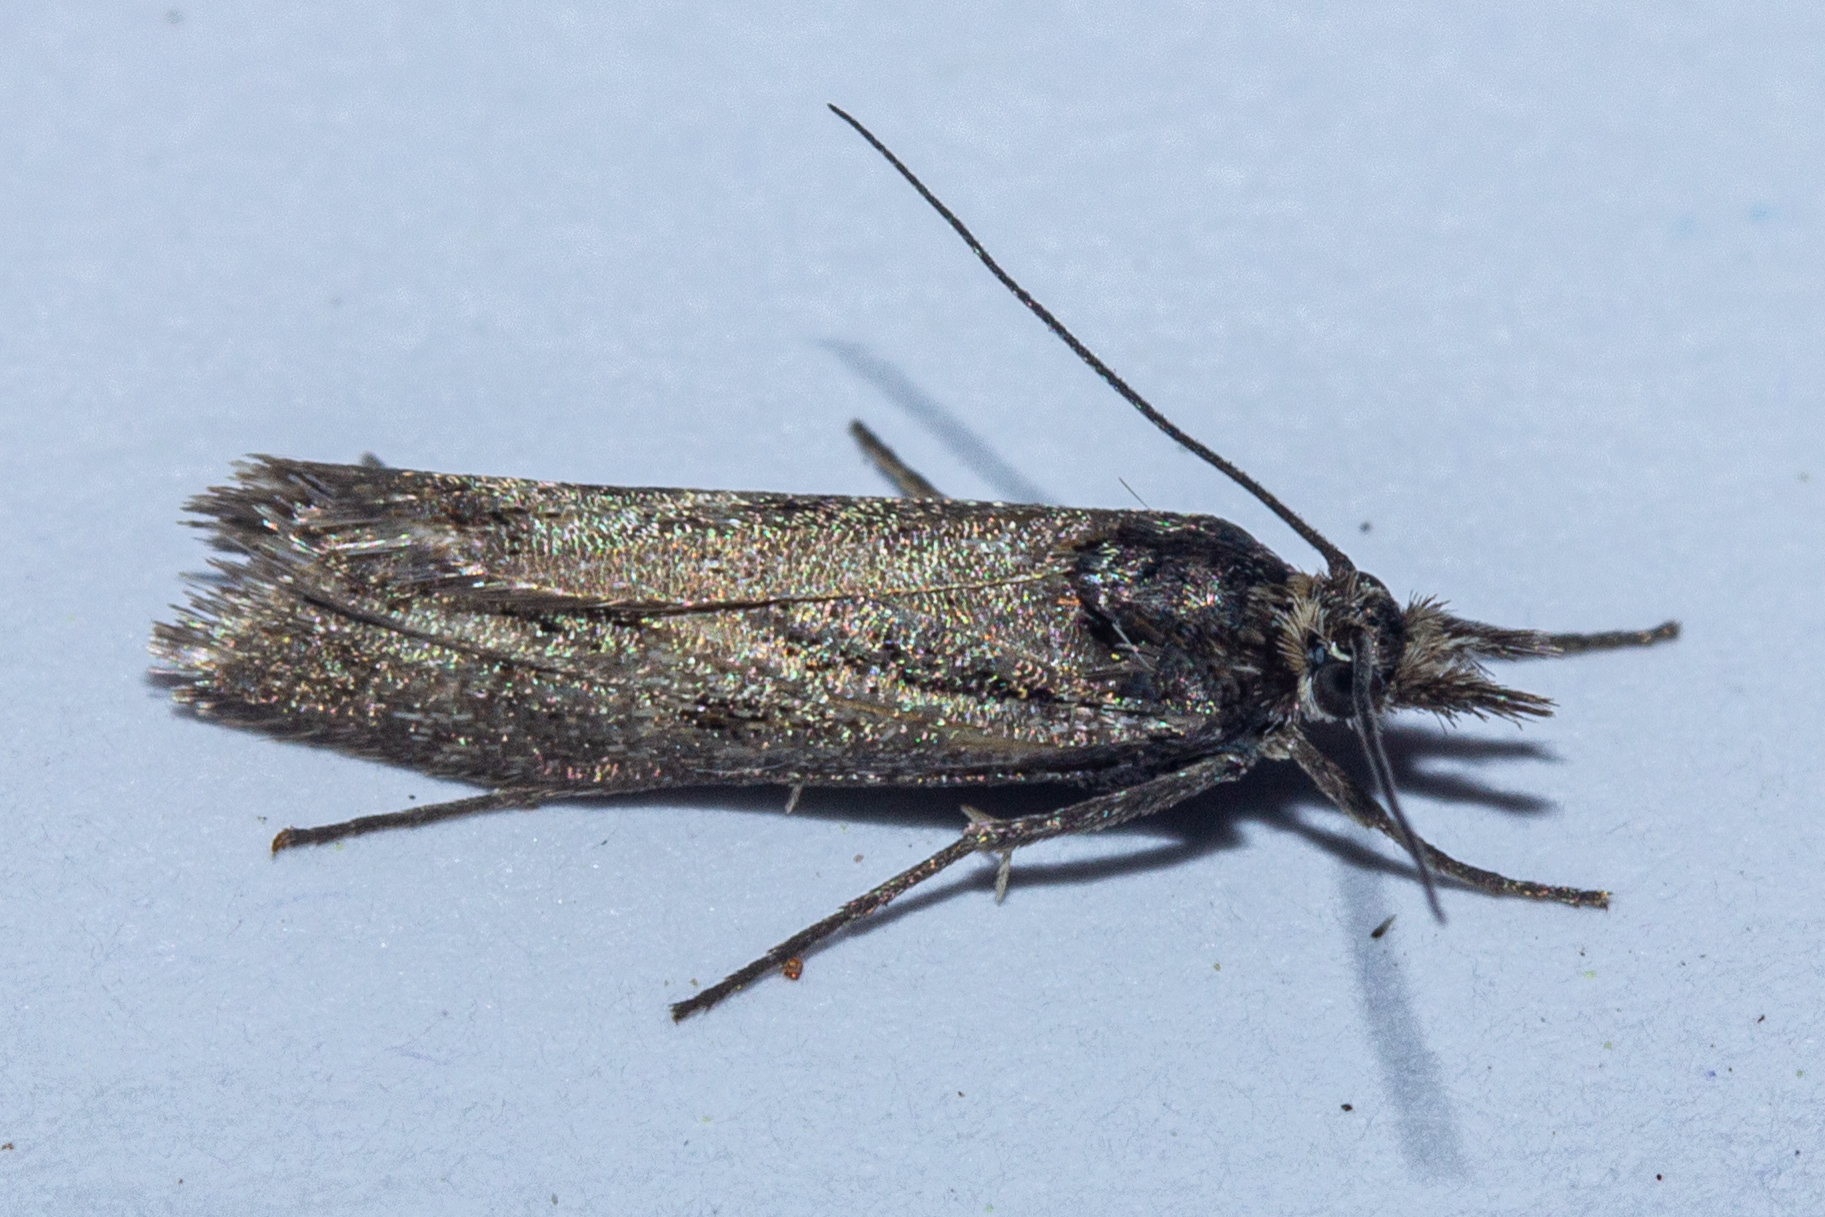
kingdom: Animalia
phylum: Arthropoda
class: Insecta
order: Lepidoptera
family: Crambidae
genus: Orocrambus
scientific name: Orocrambus corruptus
